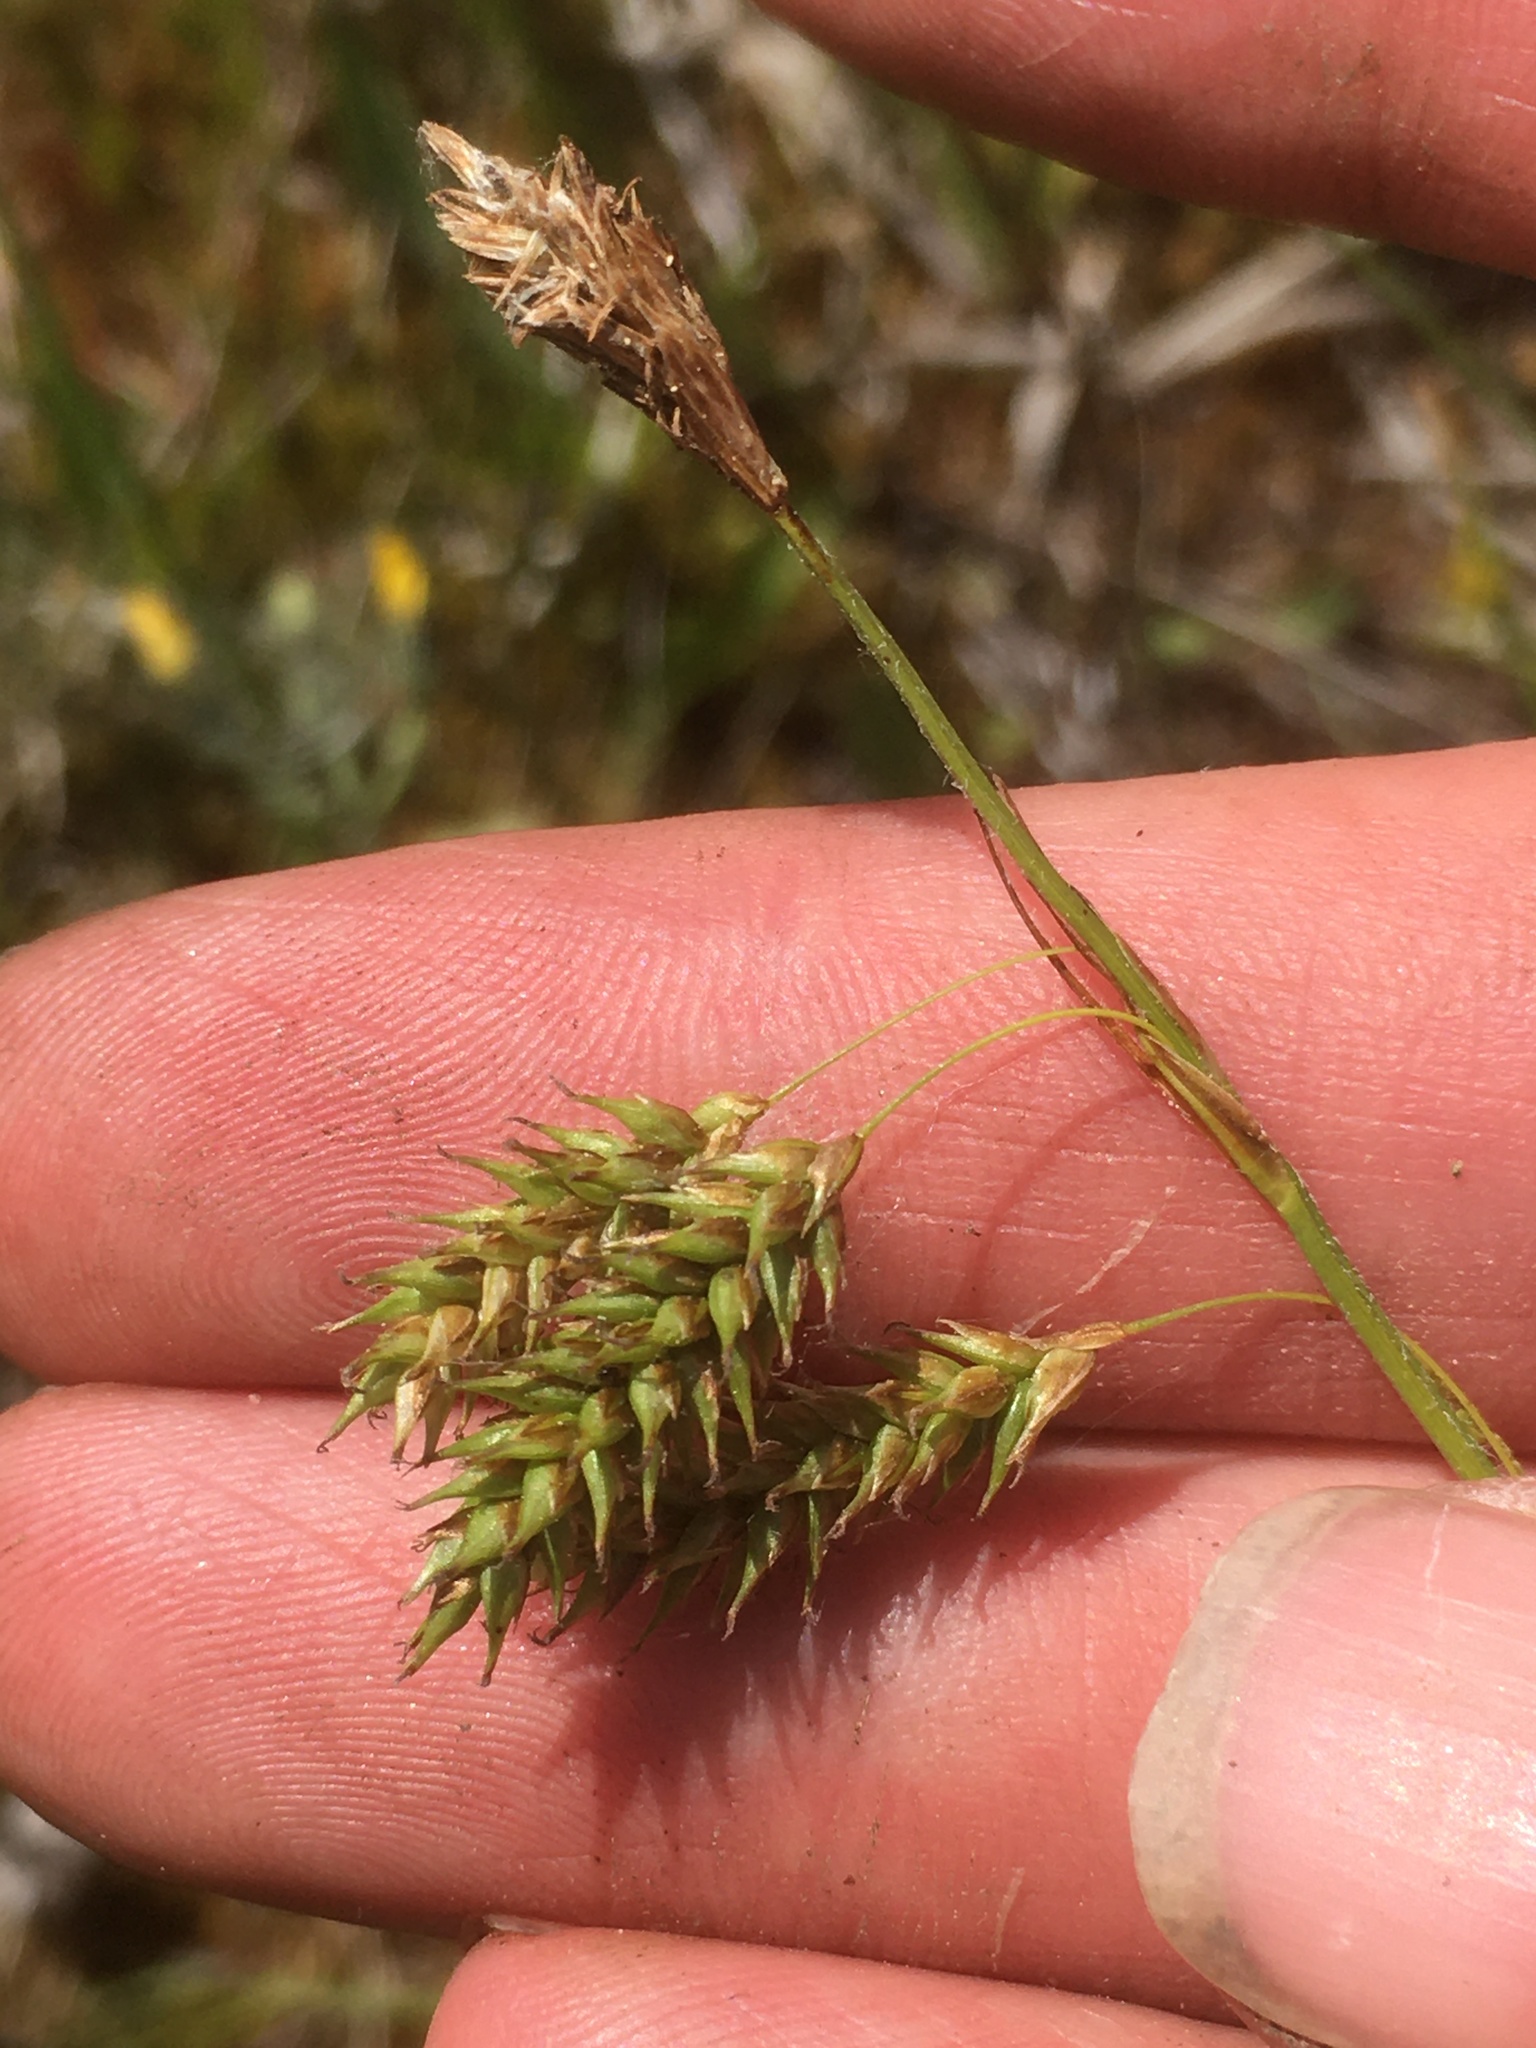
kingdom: Plantae
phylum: Tracheophyta
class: Liliopsida
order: Poales
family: Cyperaceae
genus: Carex
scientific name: Carex castanea
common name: Chestnut sedge
